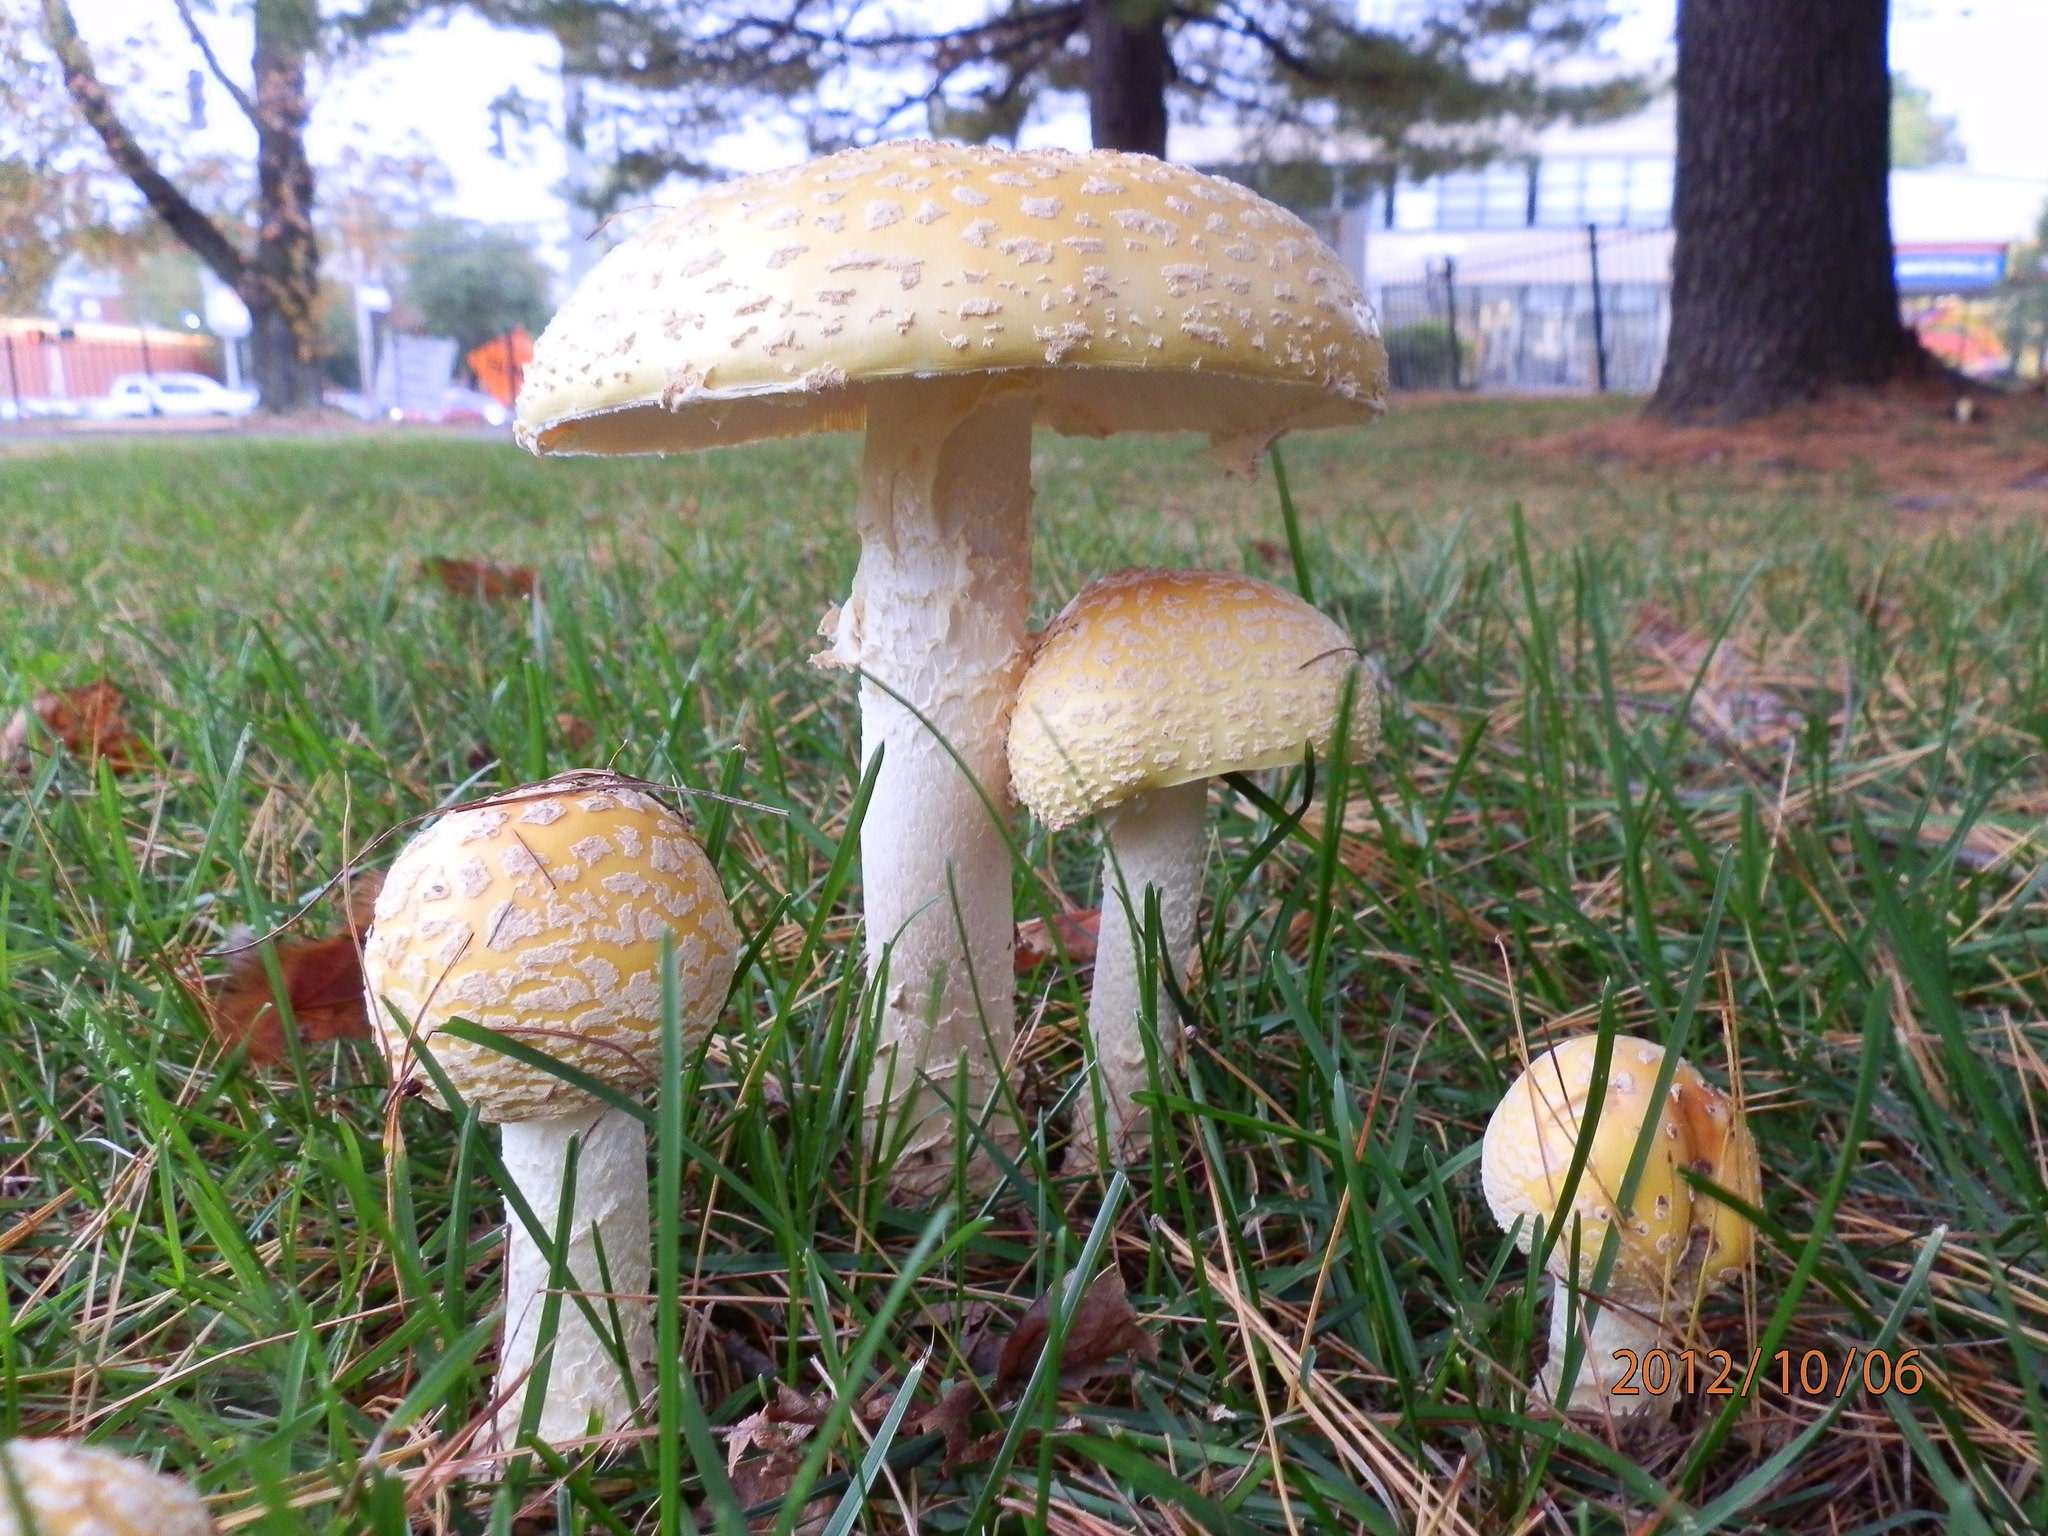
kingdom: Fungi
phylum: Basidiomycota
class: Agaricomycetes
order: Agaricales
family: Amanitaceae
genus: Amanita
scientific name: Amanita muscaria
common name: Fly agaric
